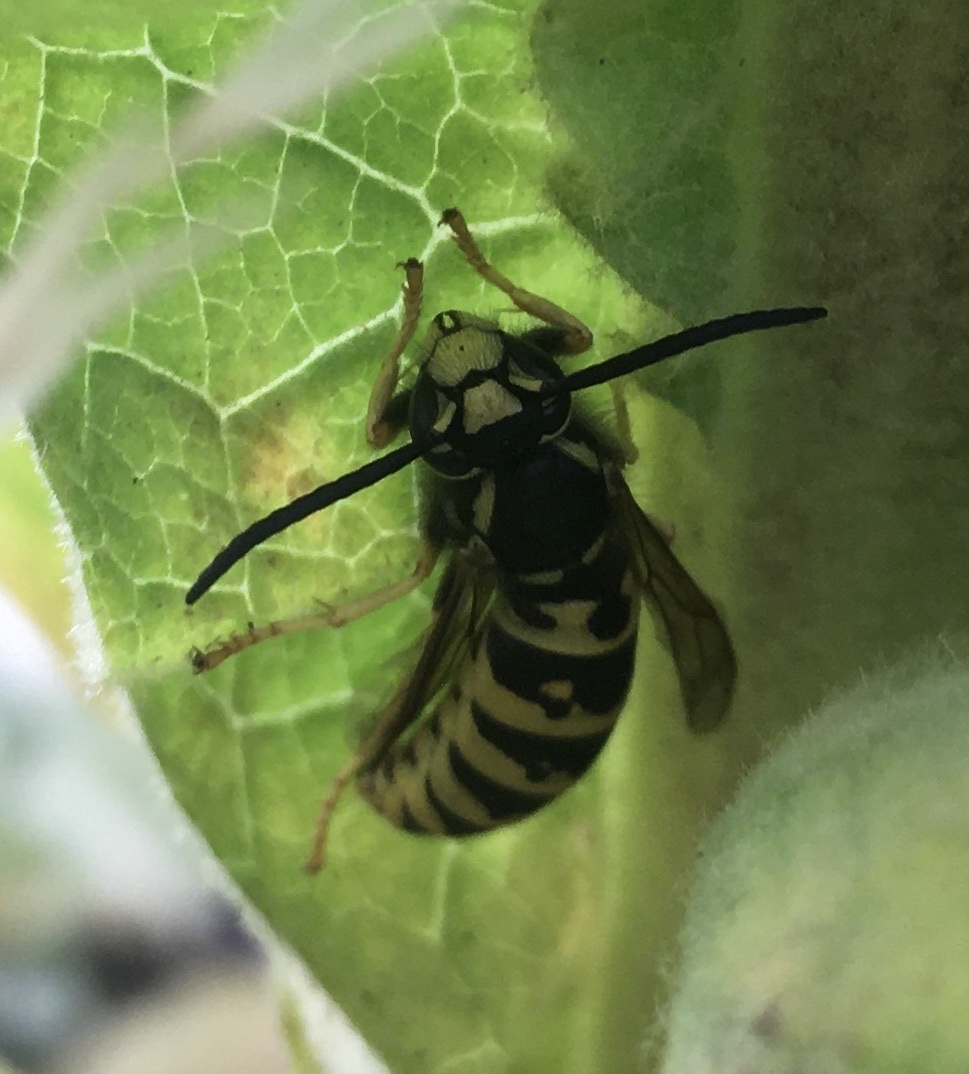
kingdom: Animalia
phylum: Arthropoda
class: Insecta
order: Hymenoptera
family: Vespidae
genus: Vespula
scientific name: Vespula atropilosa
